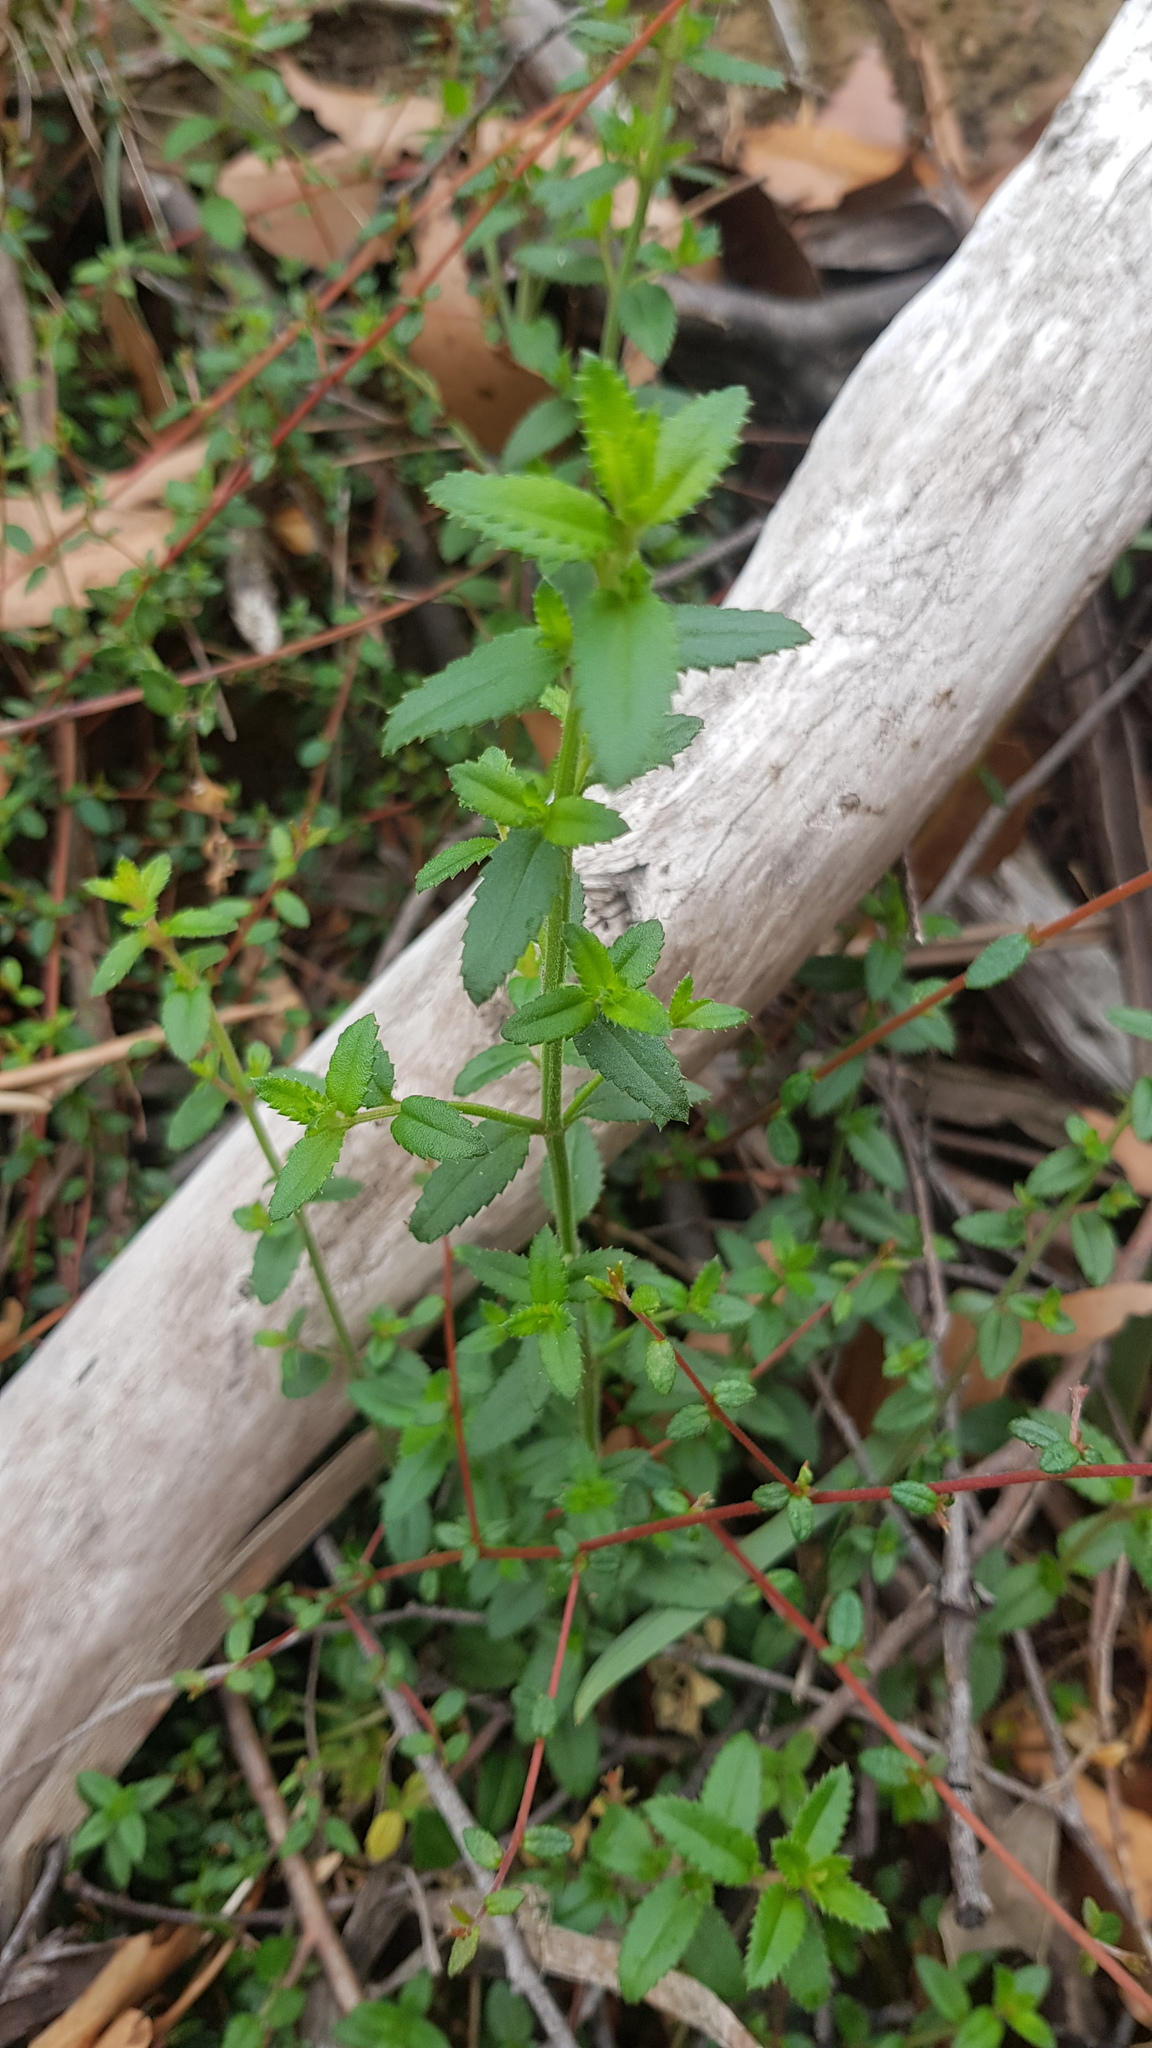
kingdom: Plantae
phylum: Tracheophyta
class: Magnoliopsida
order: Saxifragales
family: Haloragaceae
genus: Gonocarpus
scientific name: Gonocarpus teucrioides
